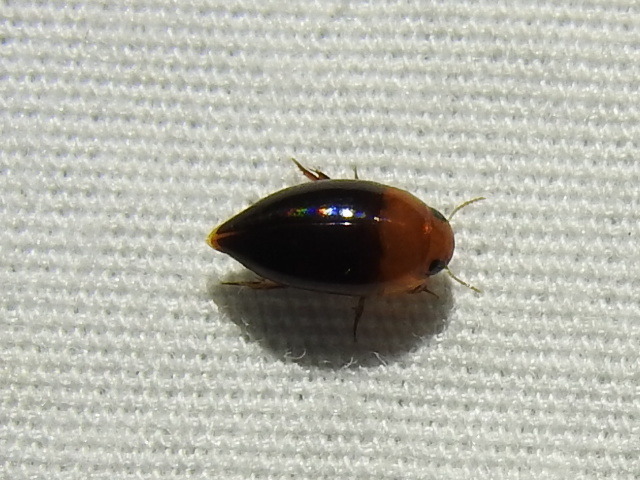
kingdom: Animalia
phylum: Arthropoda
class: Insecta
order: Coleoptera
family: Noteridae
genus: Hydrocanthus
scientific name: Hydrocanthus atripennis
